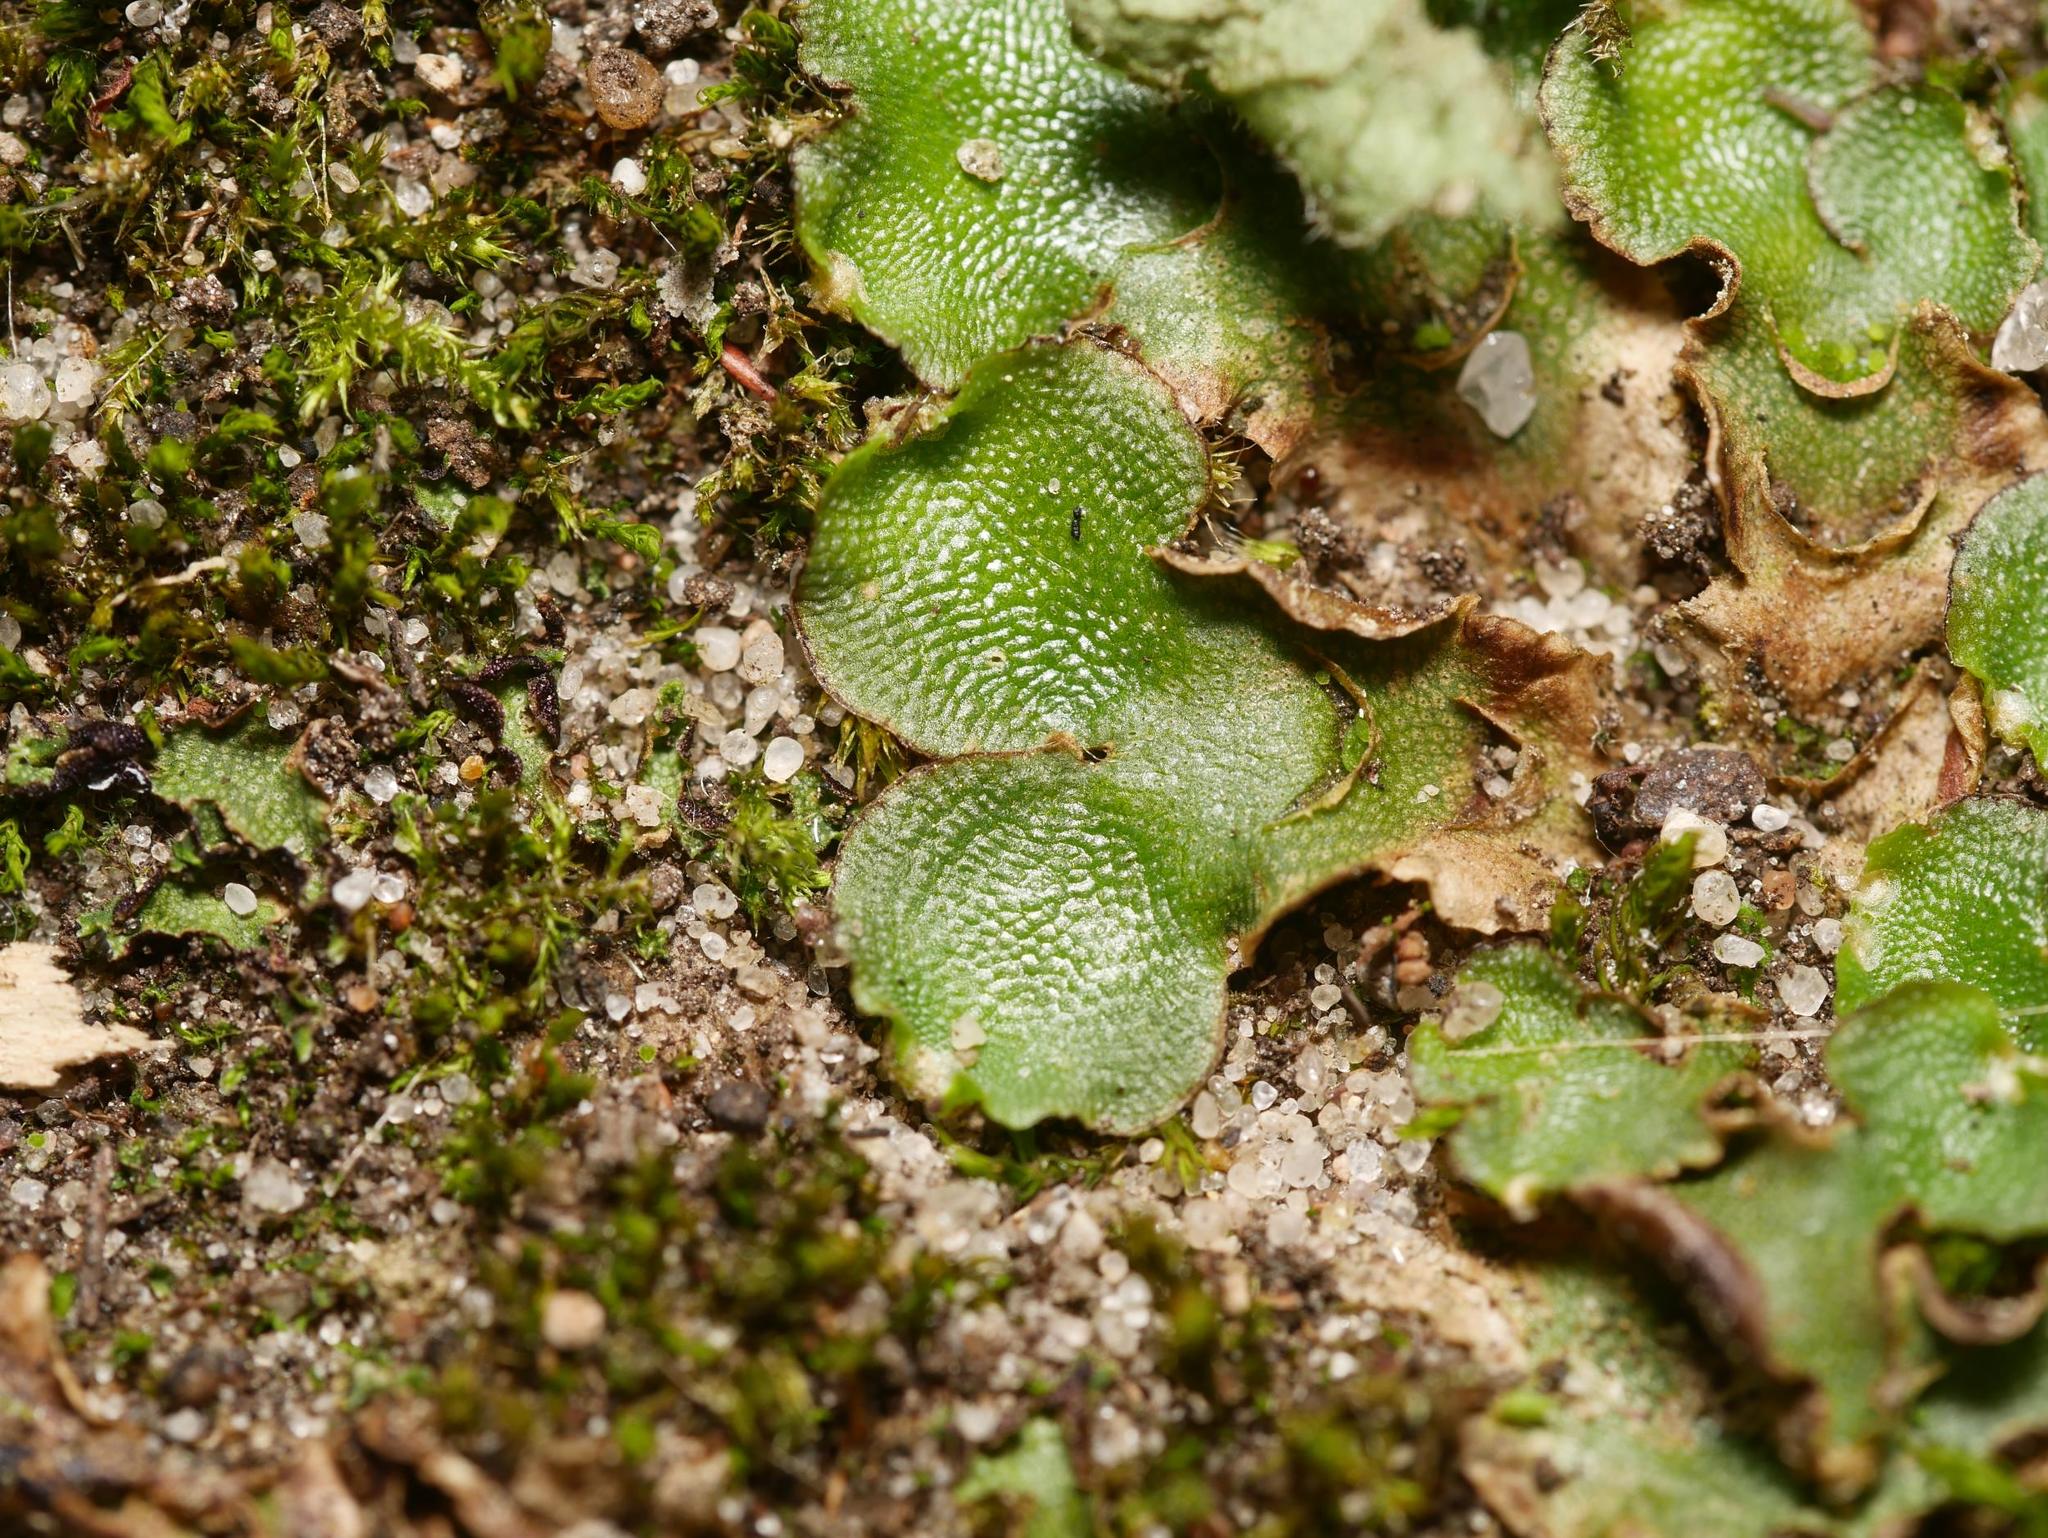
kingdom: Plantae
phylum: Marchantiophyta
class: Marchantiopsida
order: Lunulariales
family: Lunulariaceae
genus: Lunularia
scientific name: Lunularia cruciata
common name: Crescent-cup liverwort
